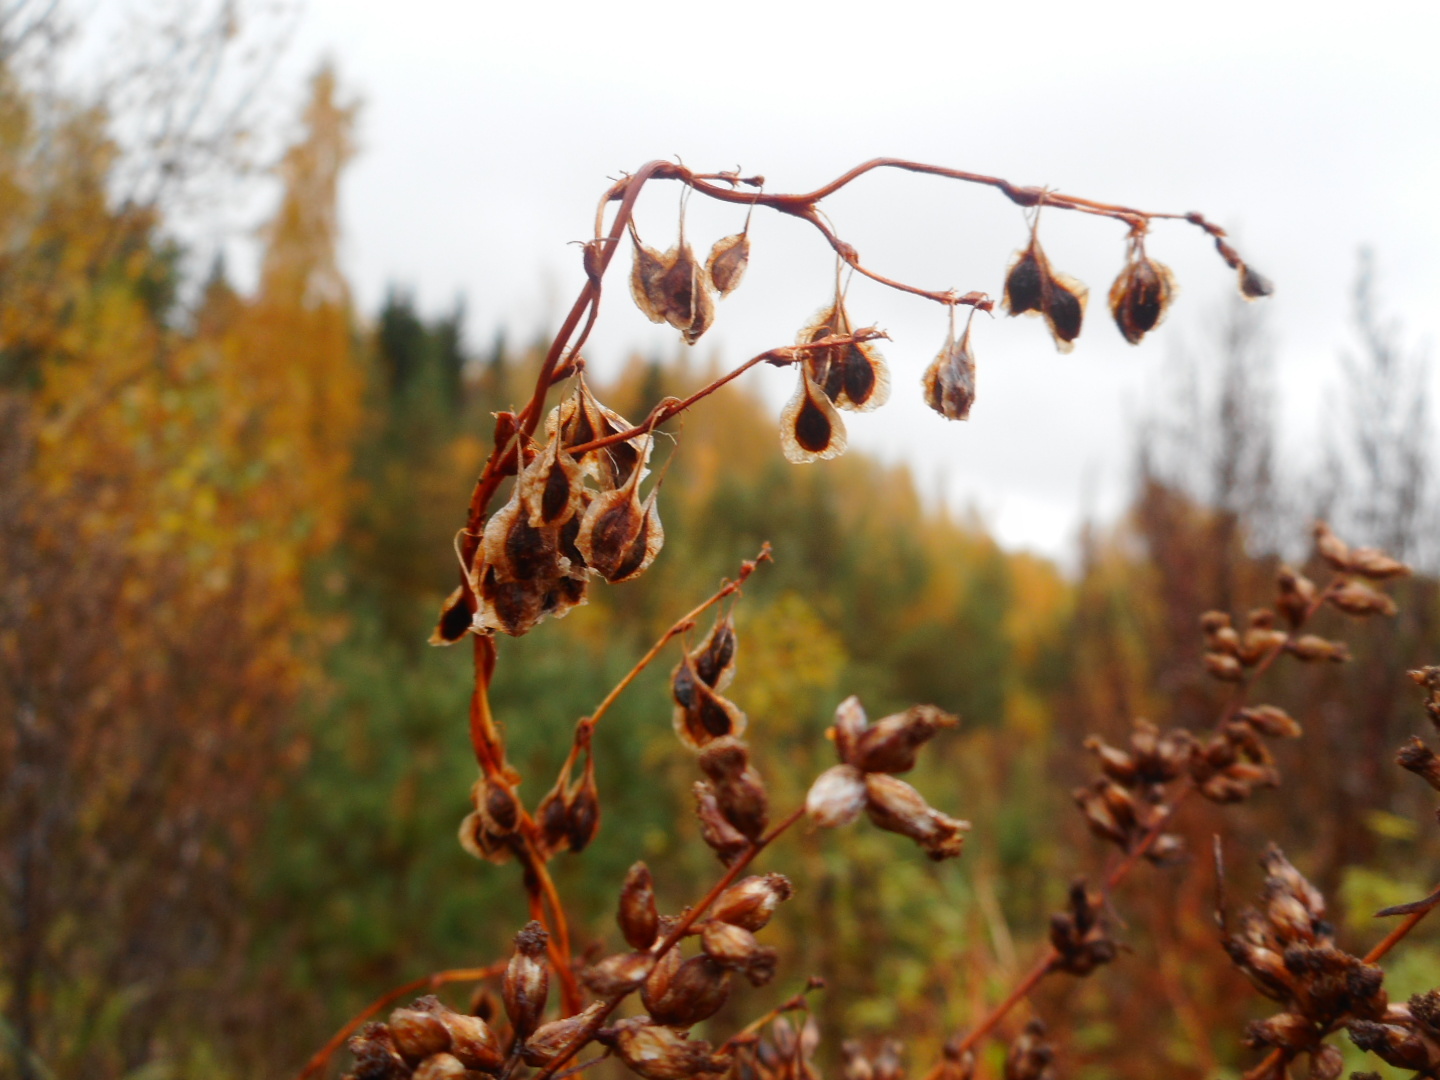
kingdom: Plantae
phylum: Tracheophyta
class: Magnoliopsida
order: Caryophyllales
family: Polygonaceae
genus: Fallopia
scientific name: Fallopia dumetorum
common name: Copse-bindweed
